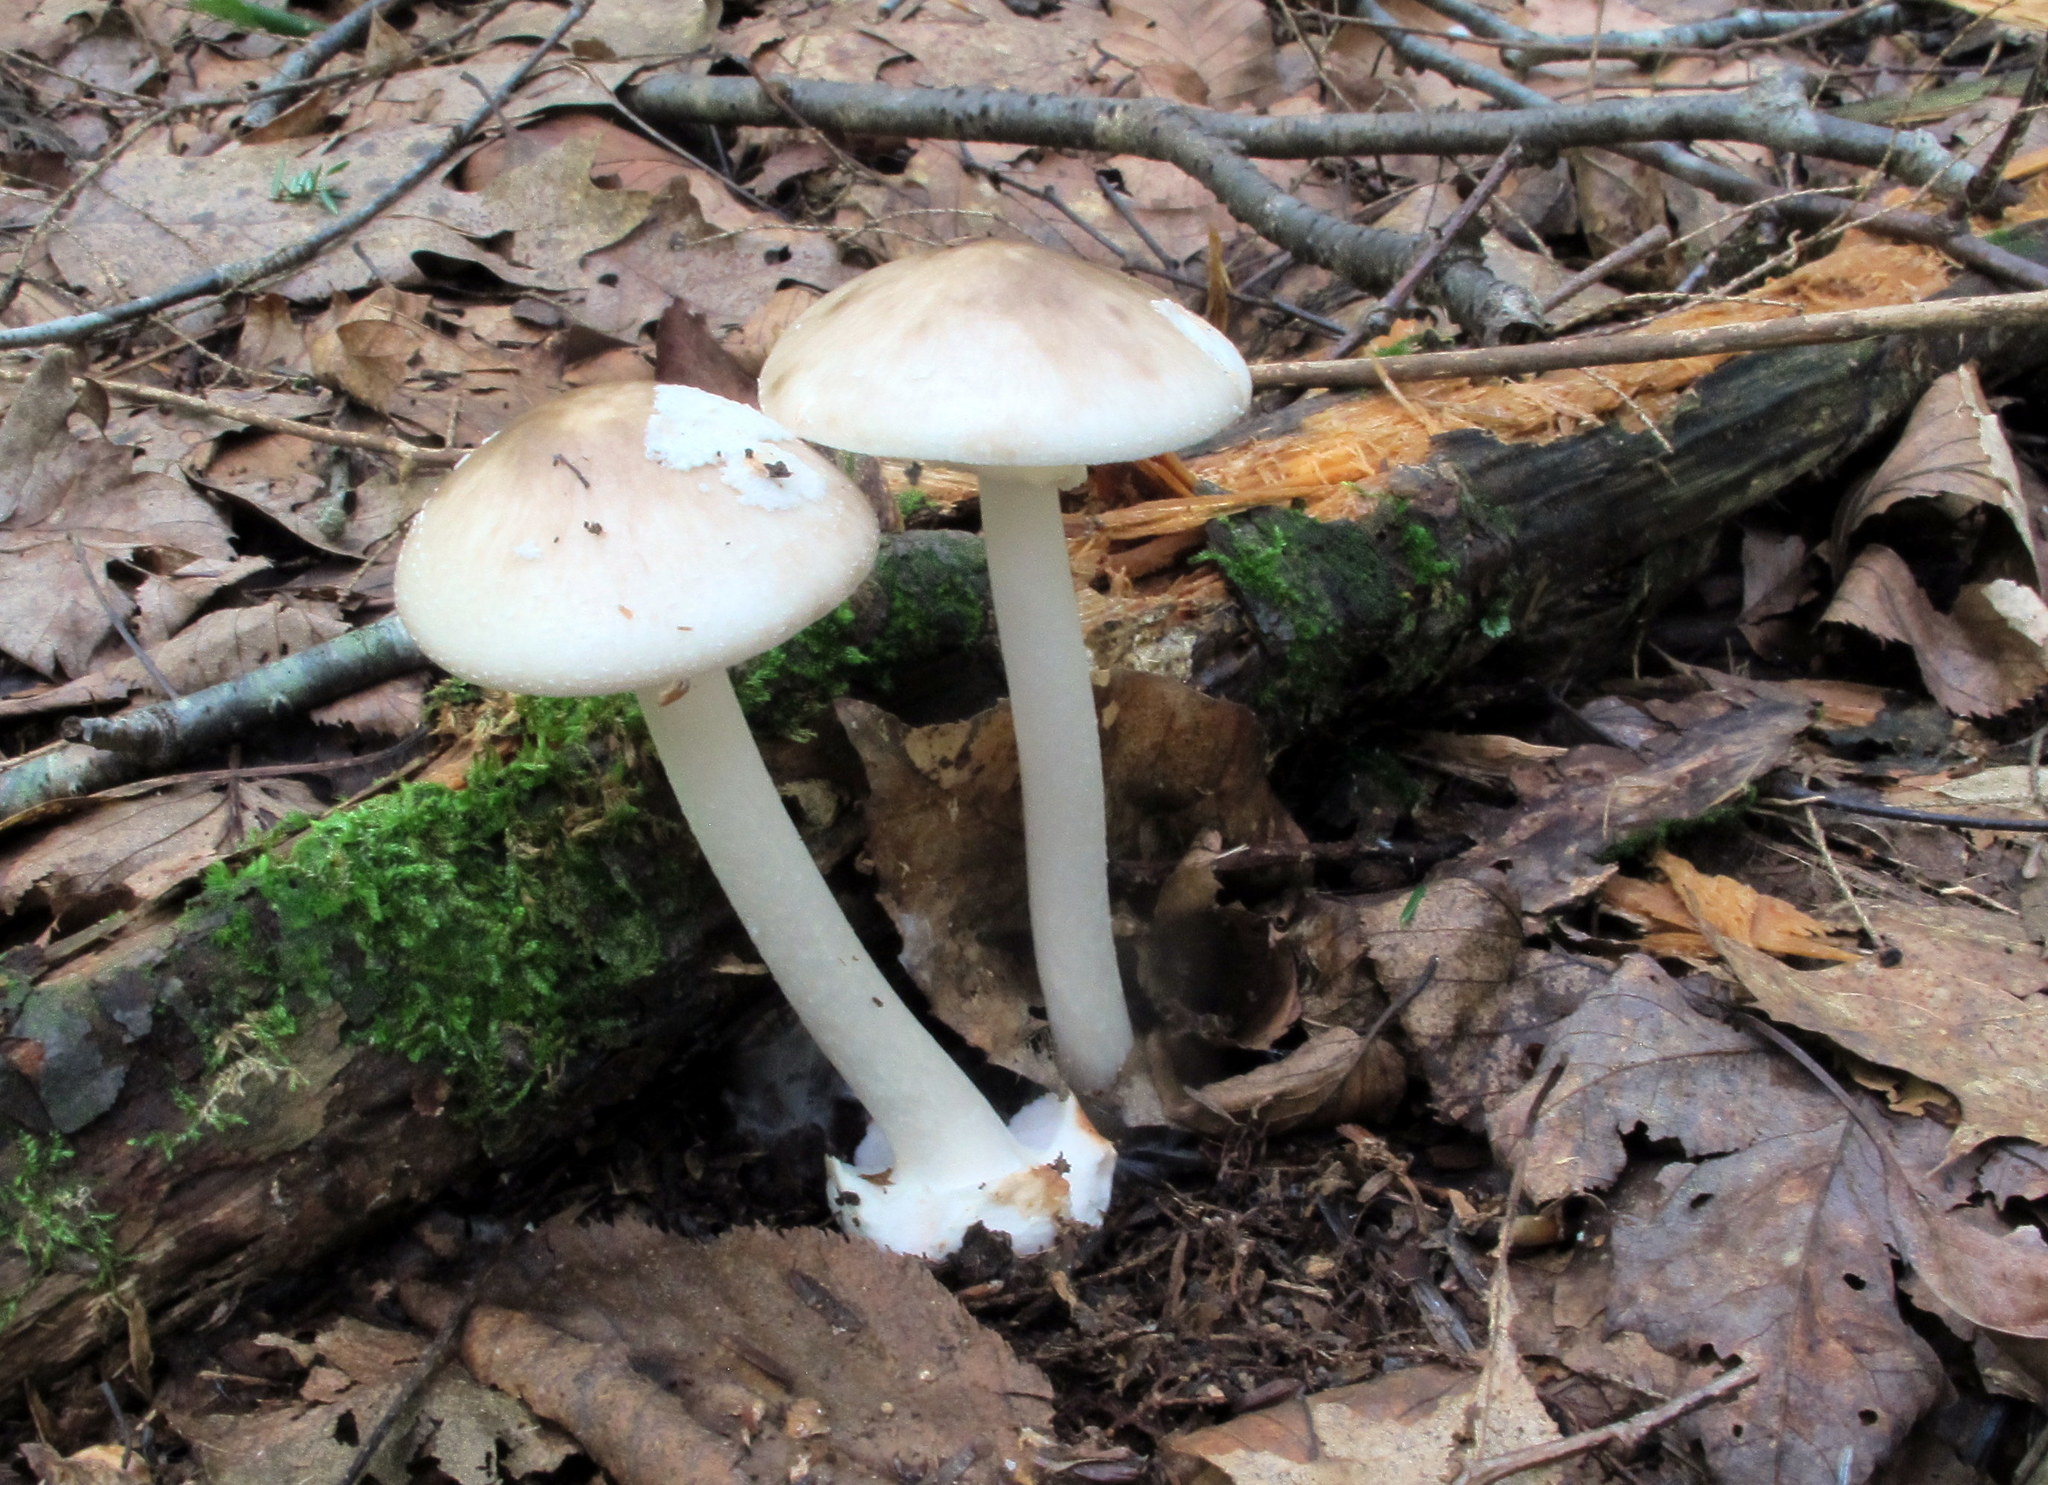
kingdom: Fungi
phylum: Basidiomycota
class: Agaricomycetes
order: Agaricales
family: Amanitaceae
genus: Amanita
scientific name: Amanita brunnescens
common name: Brown american star-footed amanita
